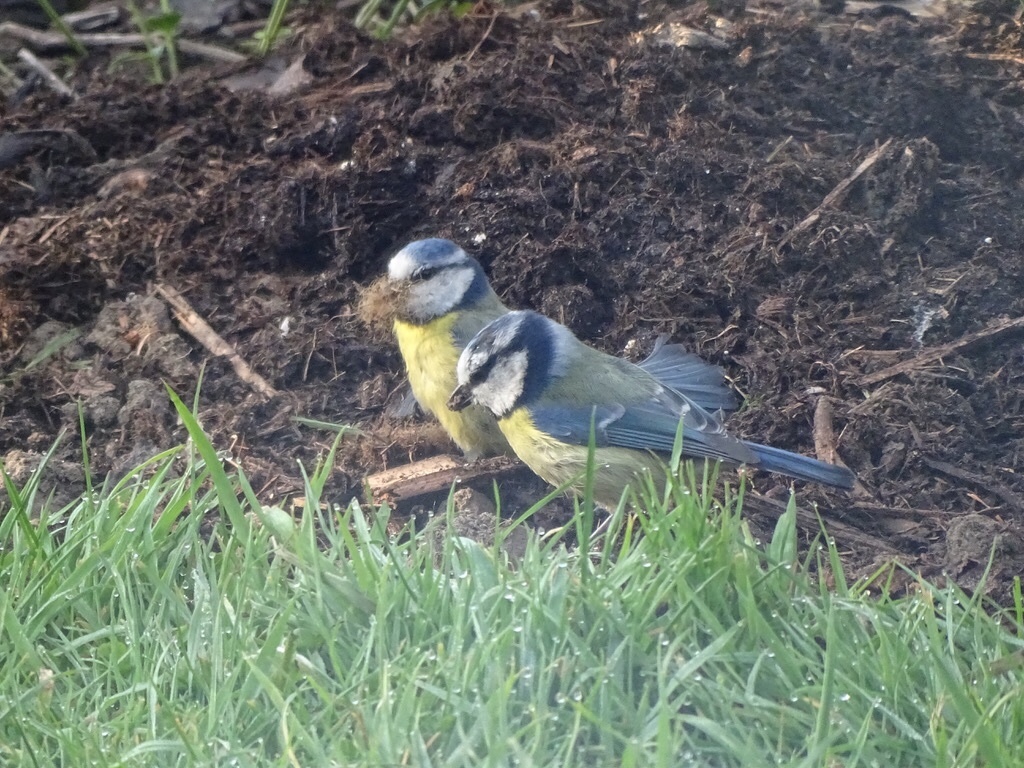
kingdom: Animalia
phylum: Chordata
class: Aves
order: Passeriformes
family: Paridae
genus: Cyanistes
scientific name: Cyanistes caeruleus
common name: Eurasian blue tit
